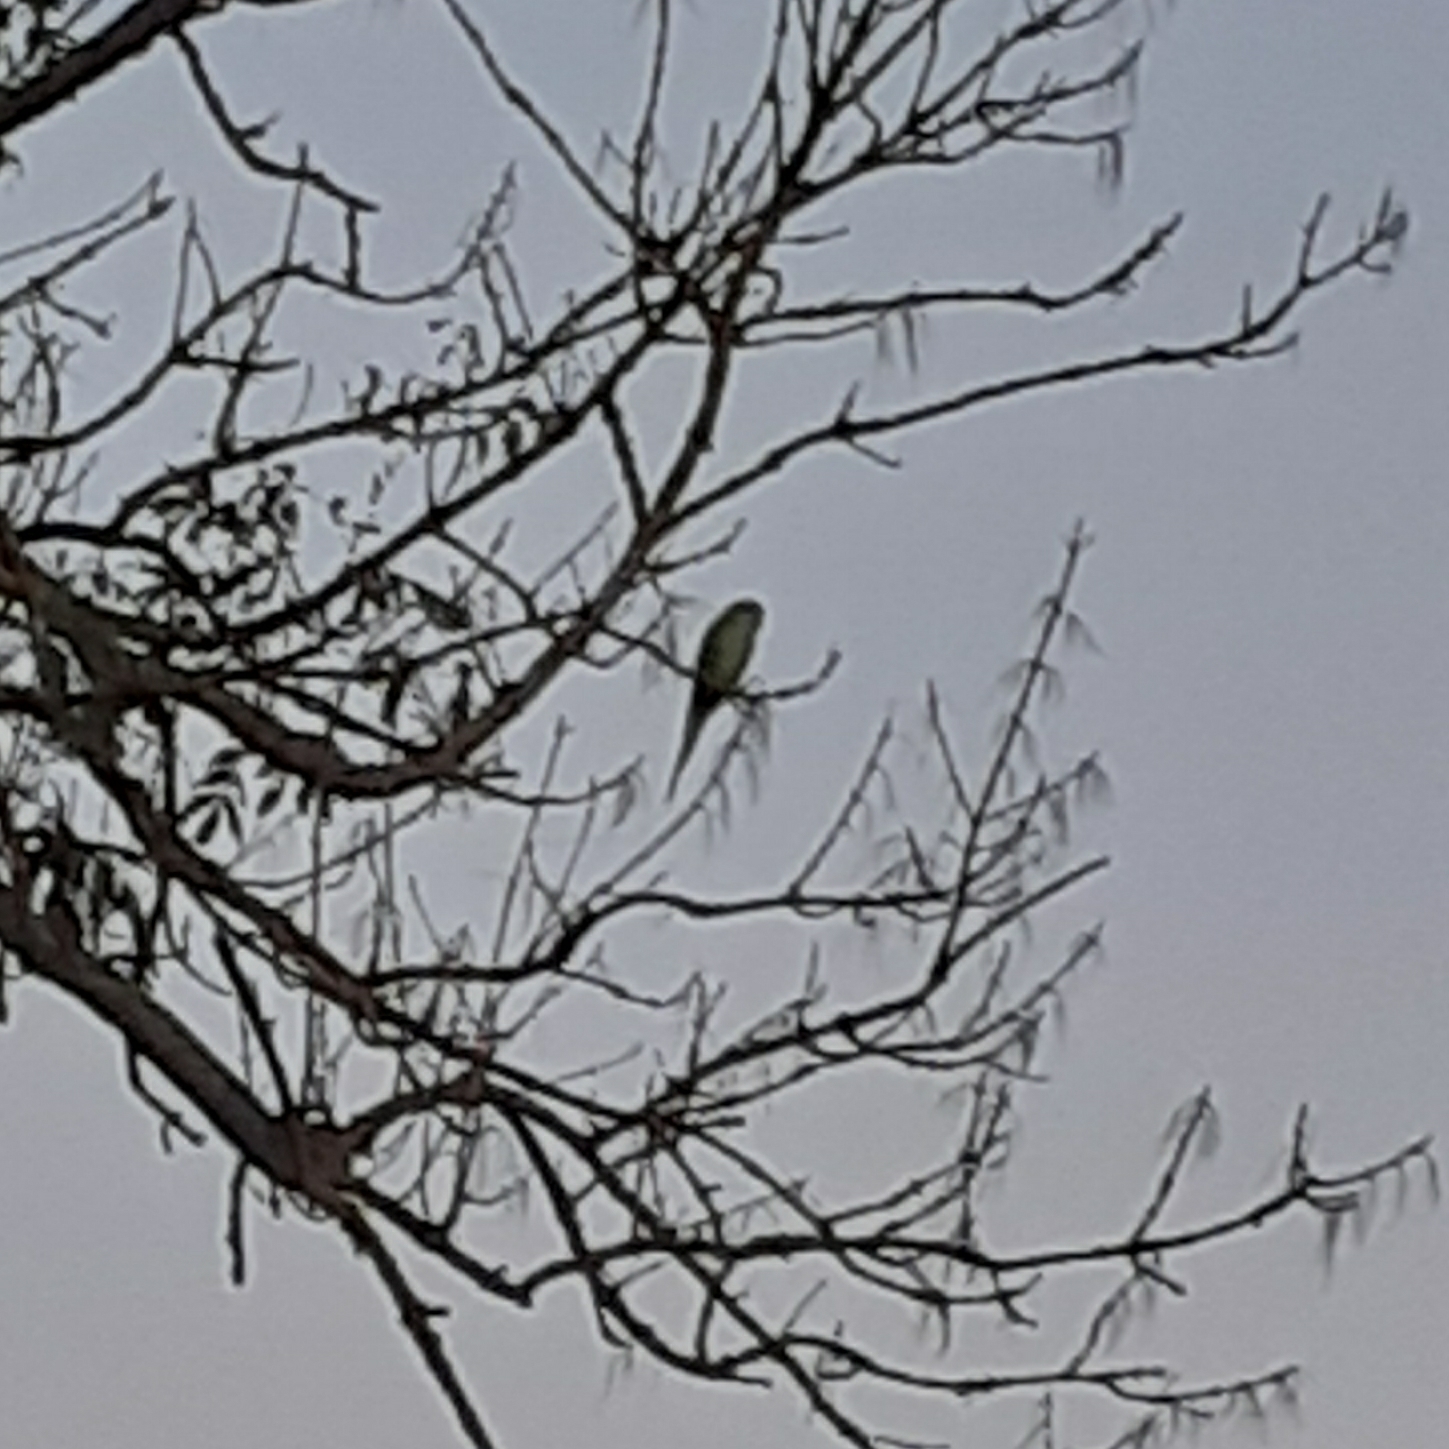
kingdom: Animalia
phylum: Chordata
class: Aves
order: Psittaciformes
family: Psittacidae
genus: Myiopsitta
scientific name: Myiopsitta monachus
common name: Monk parakeet
